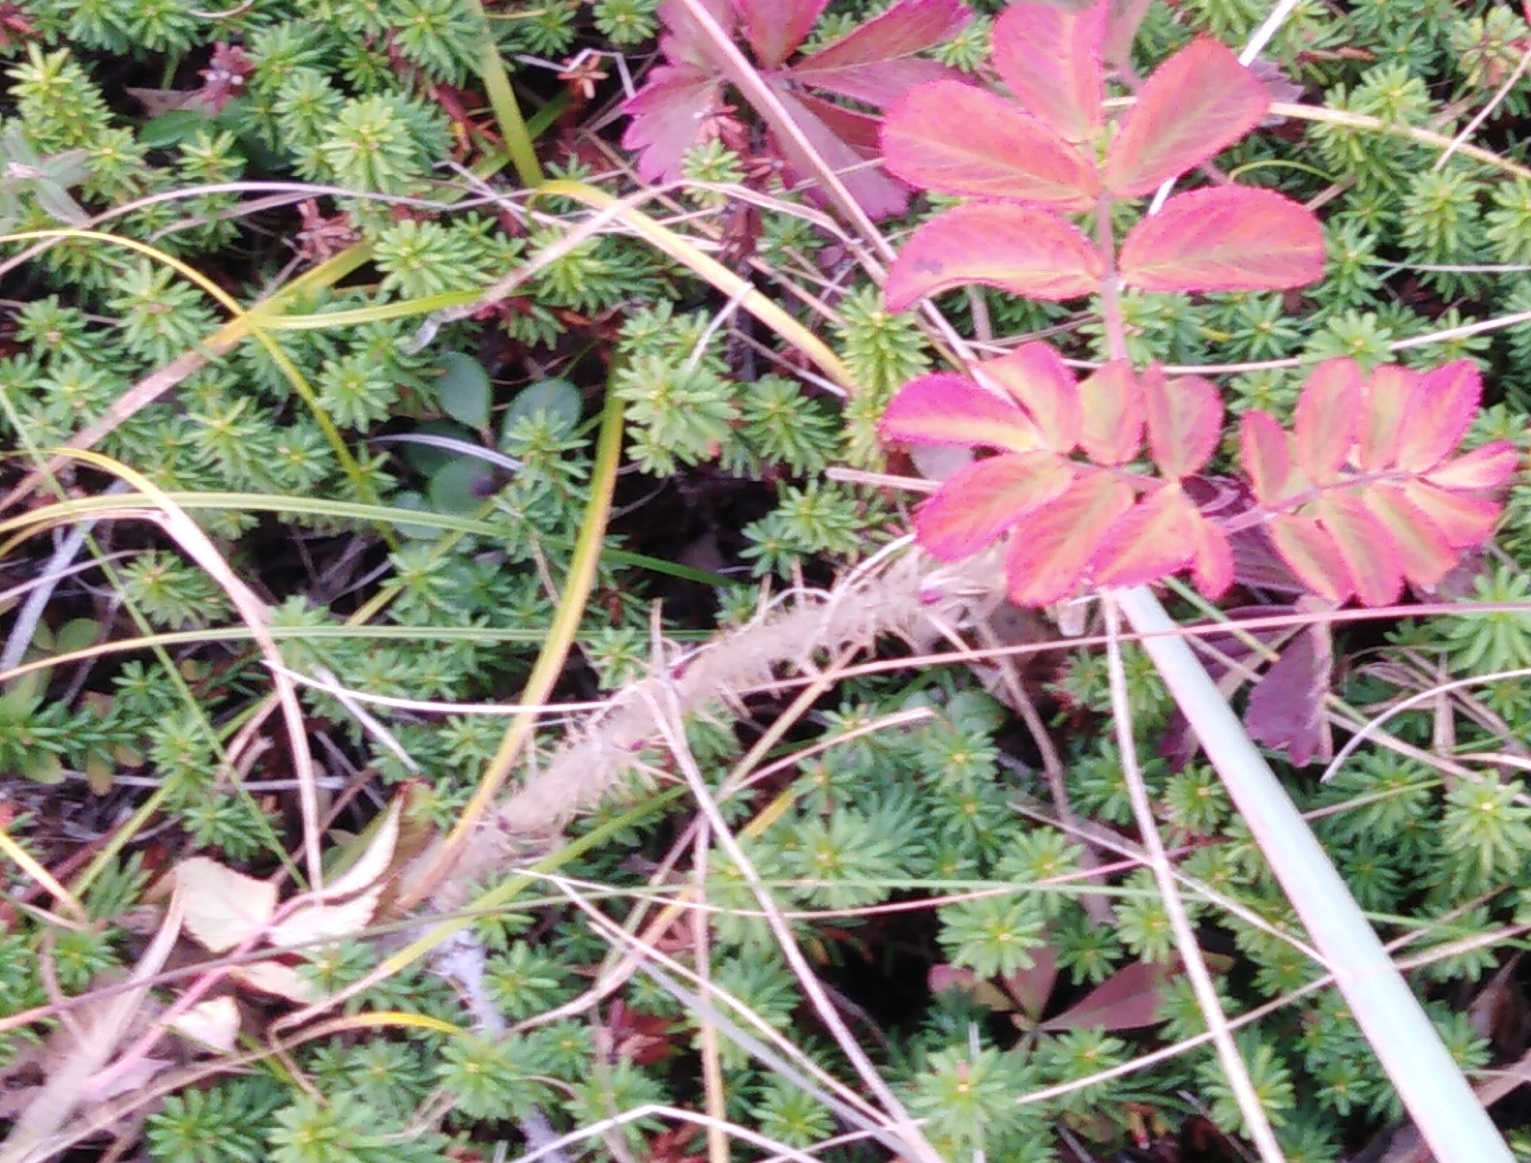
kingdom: Plantae
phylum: Tracheophyta
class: Magnoliopsida
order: Rosales
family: Rosaceae
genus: Rosa
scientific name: Rosa rugosa
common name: Japanese rose
